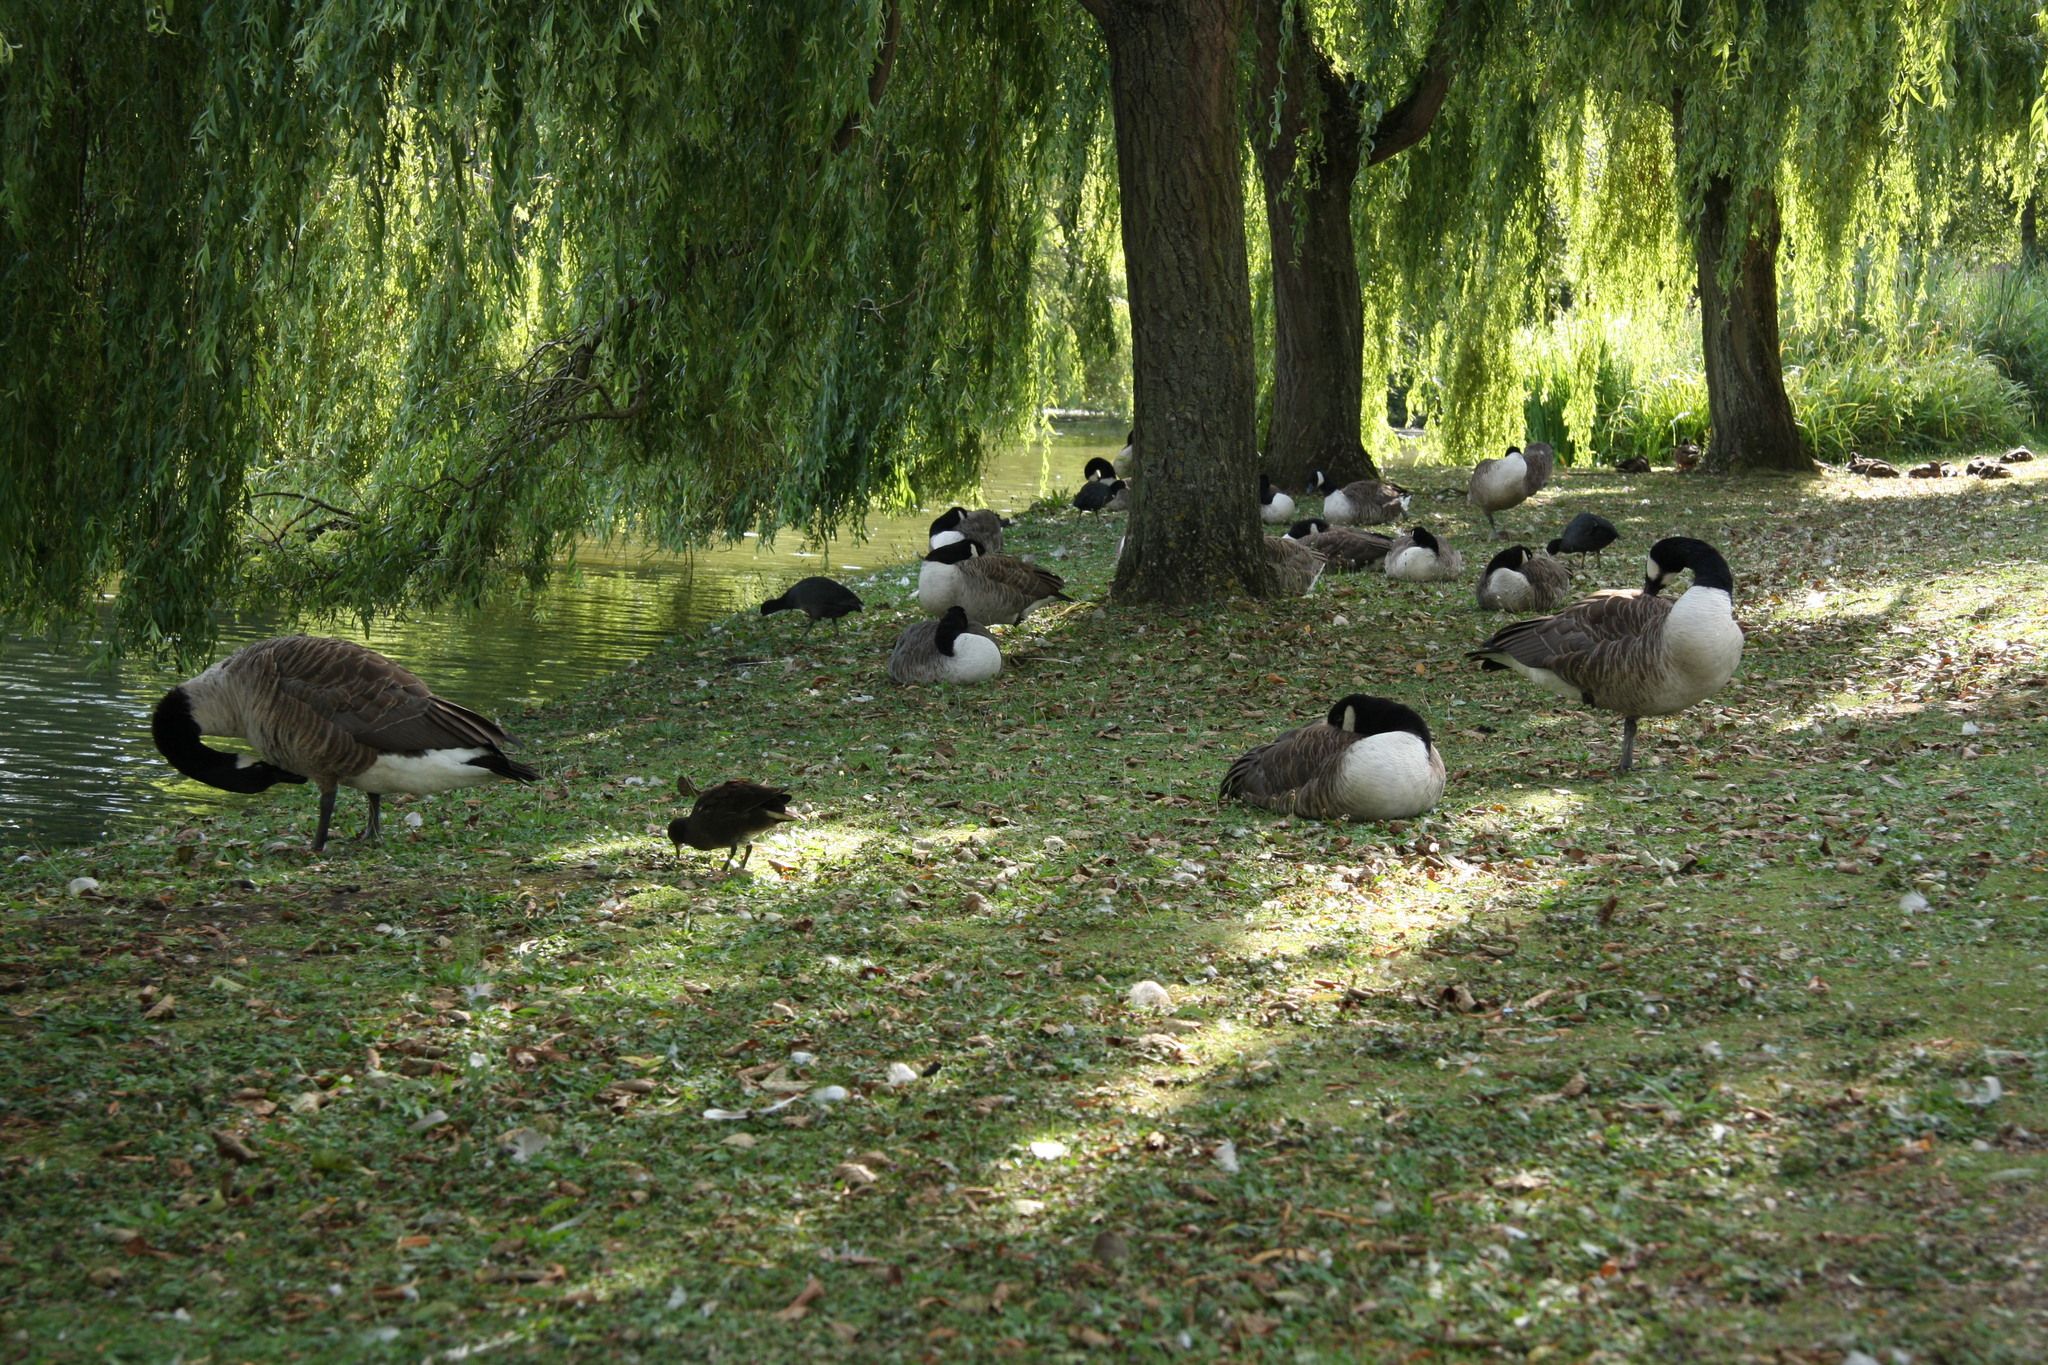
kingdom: Animalia
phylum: Chordata
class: Aves
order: Anseriformes
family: Anatidae
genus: Branta
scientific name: Branta canadensis
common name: Canada goose
